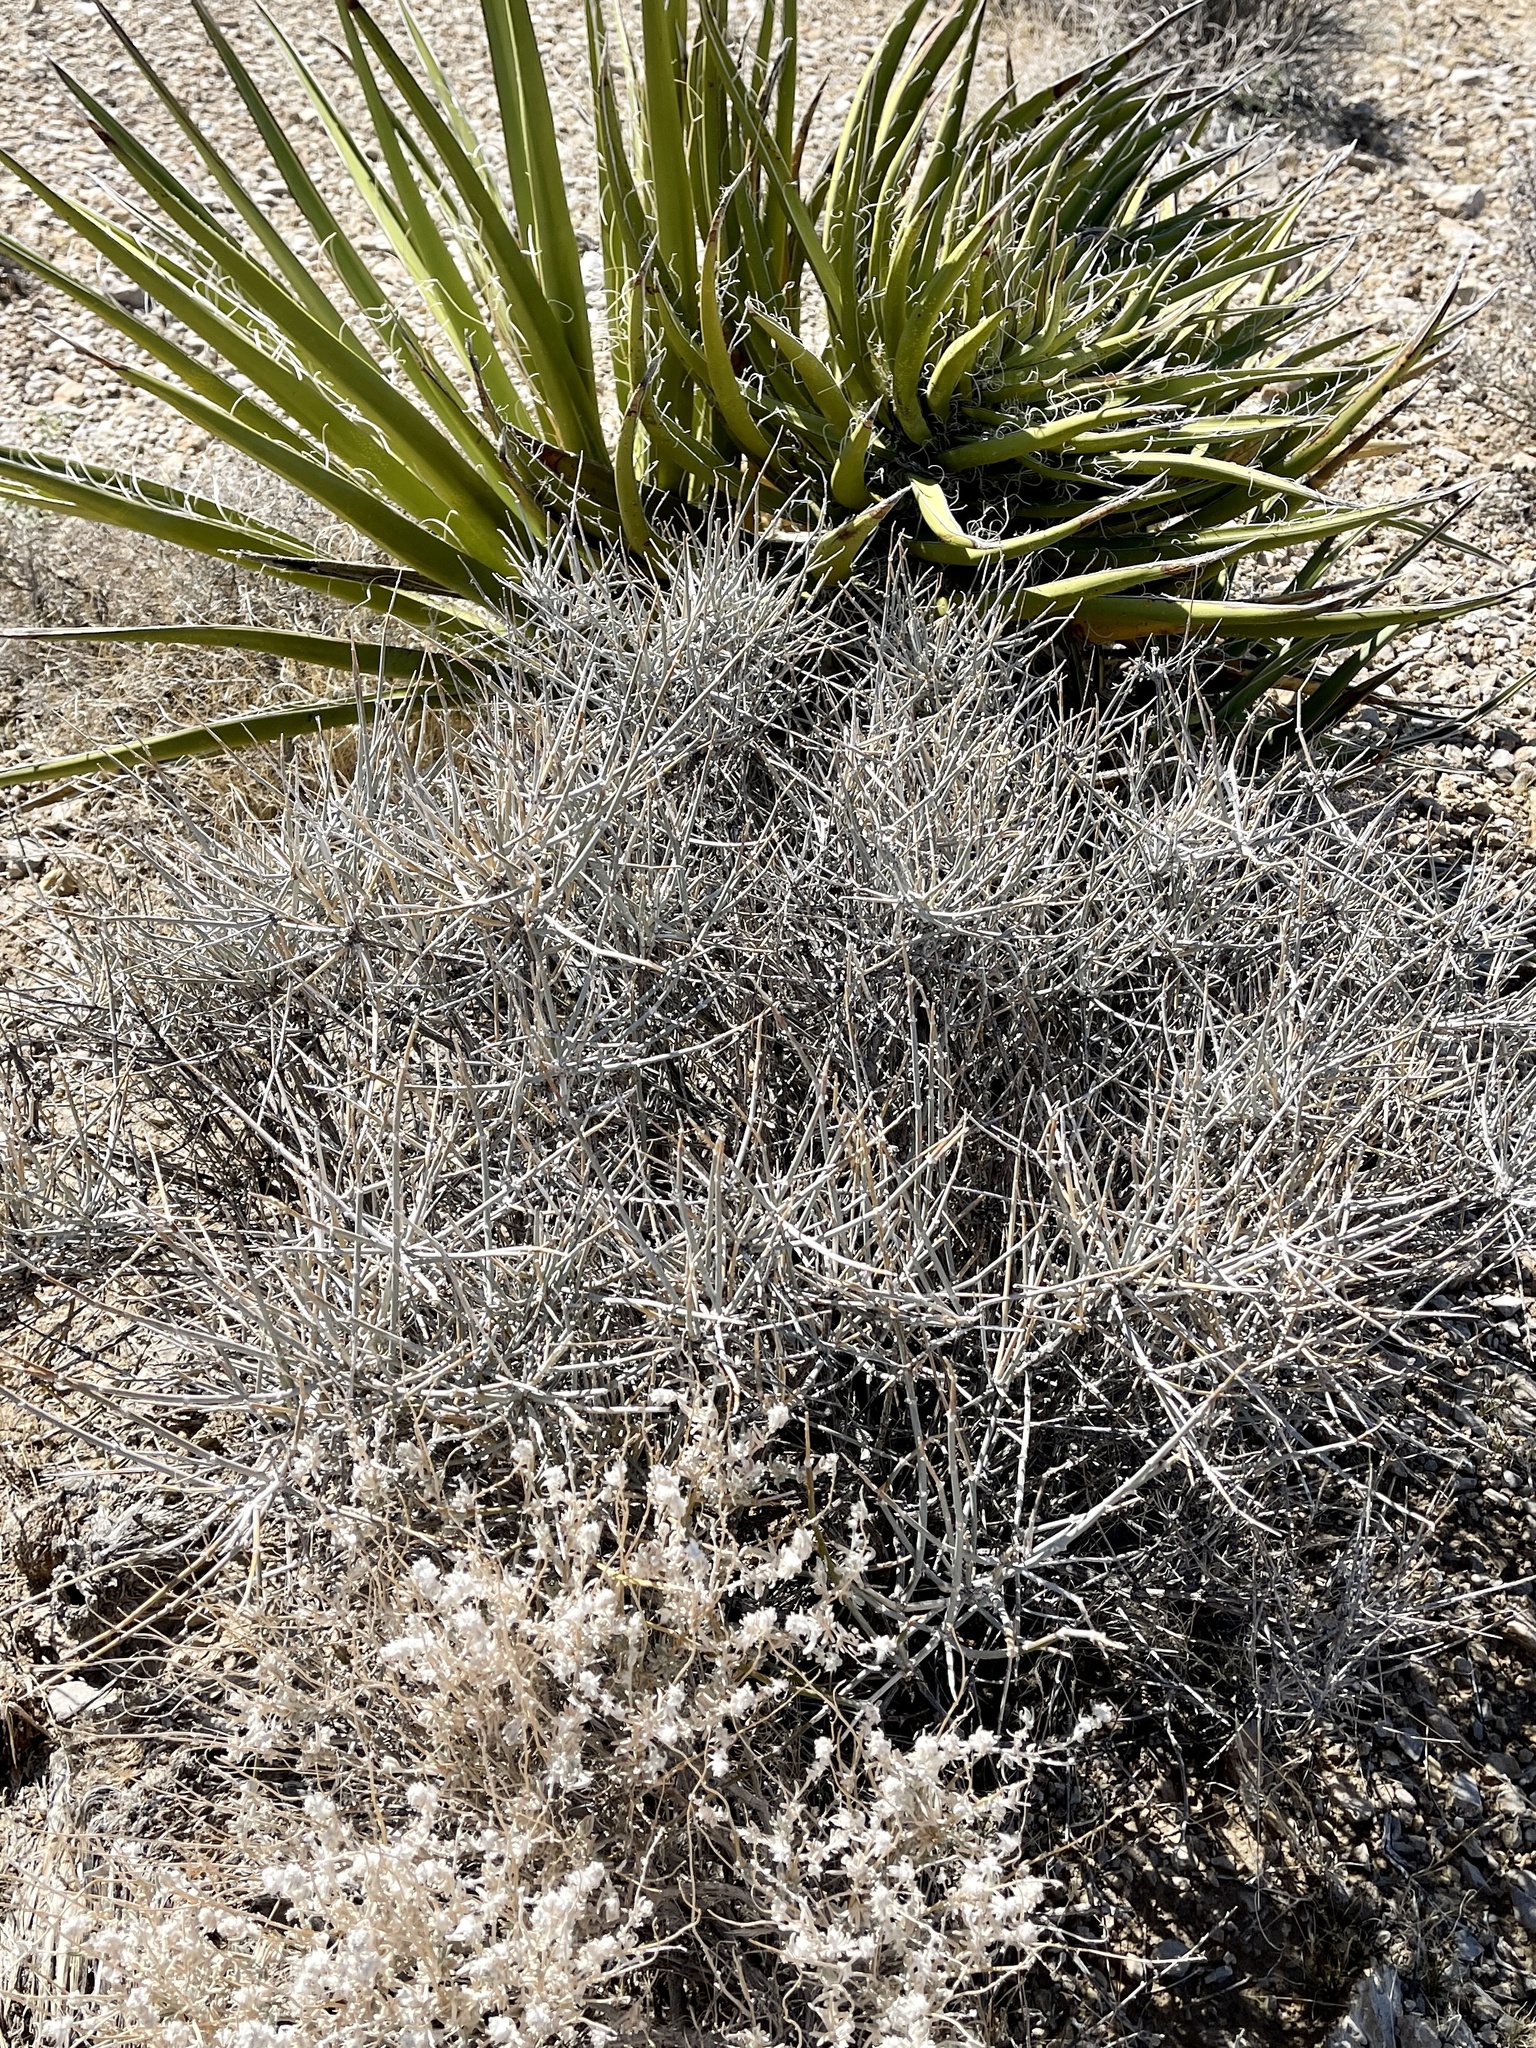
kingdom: Plantae
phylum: Tracheophyta
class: Gnetopsida
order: Ephedrales
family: Ephedraceae
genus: Ephedra
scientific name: Ephedra nevadensis
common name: Gray ephedra
